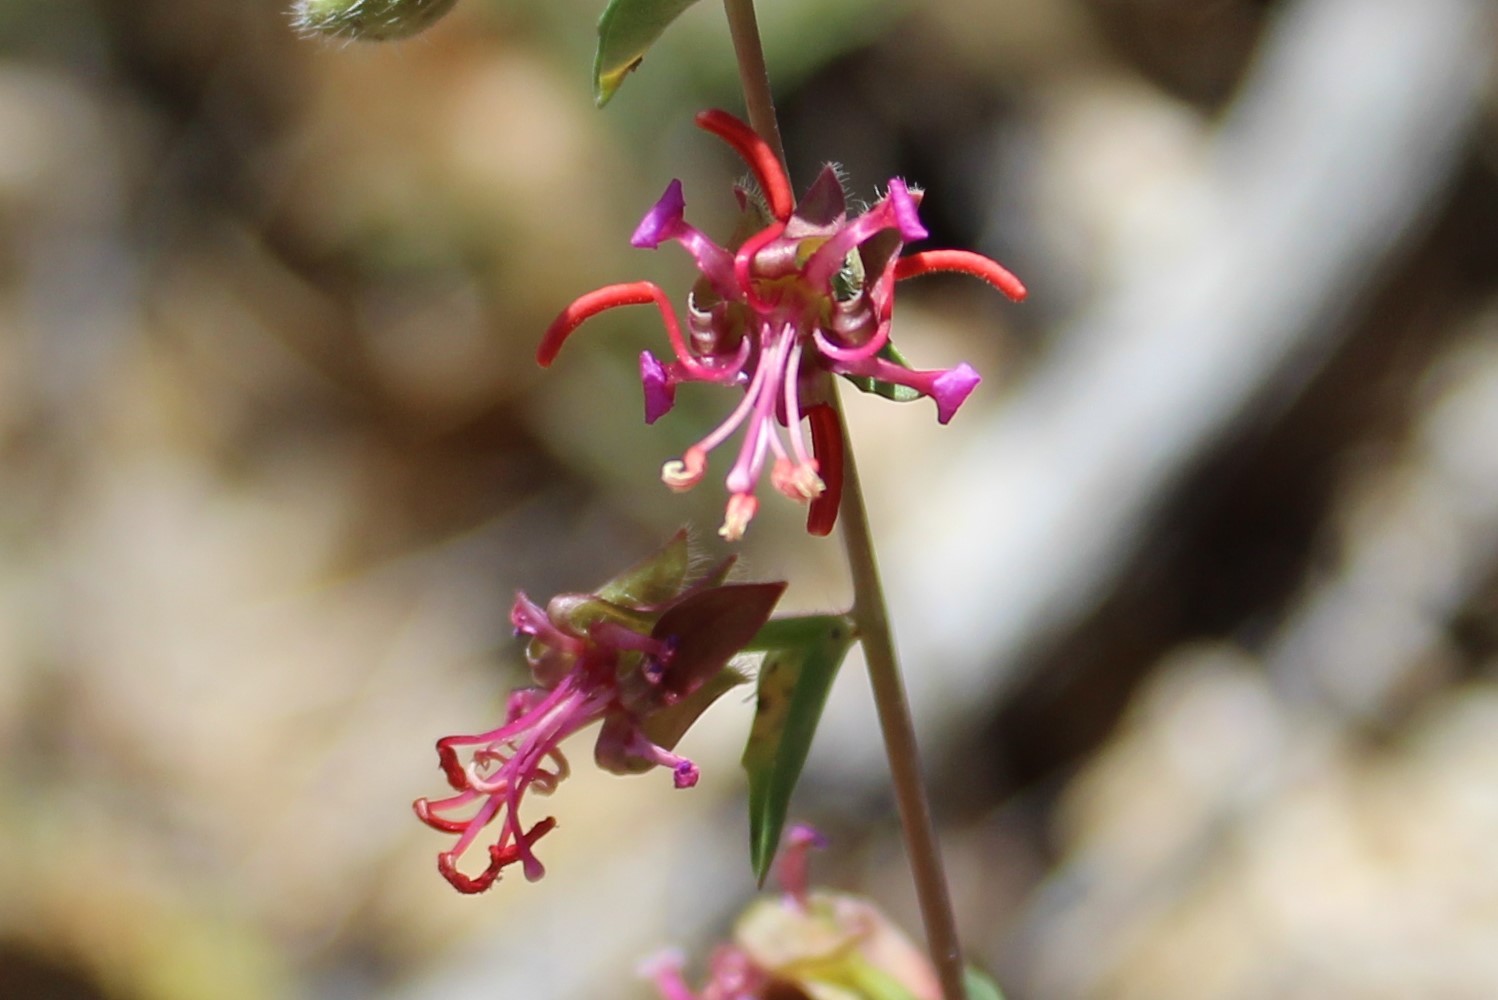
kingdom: Plantae
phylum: Tracheophyta
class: Magnoliopsida
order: Myrtales
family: Onagraceae
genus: Clarkia
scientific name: Clarkia unguiculata
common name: Clarkia
